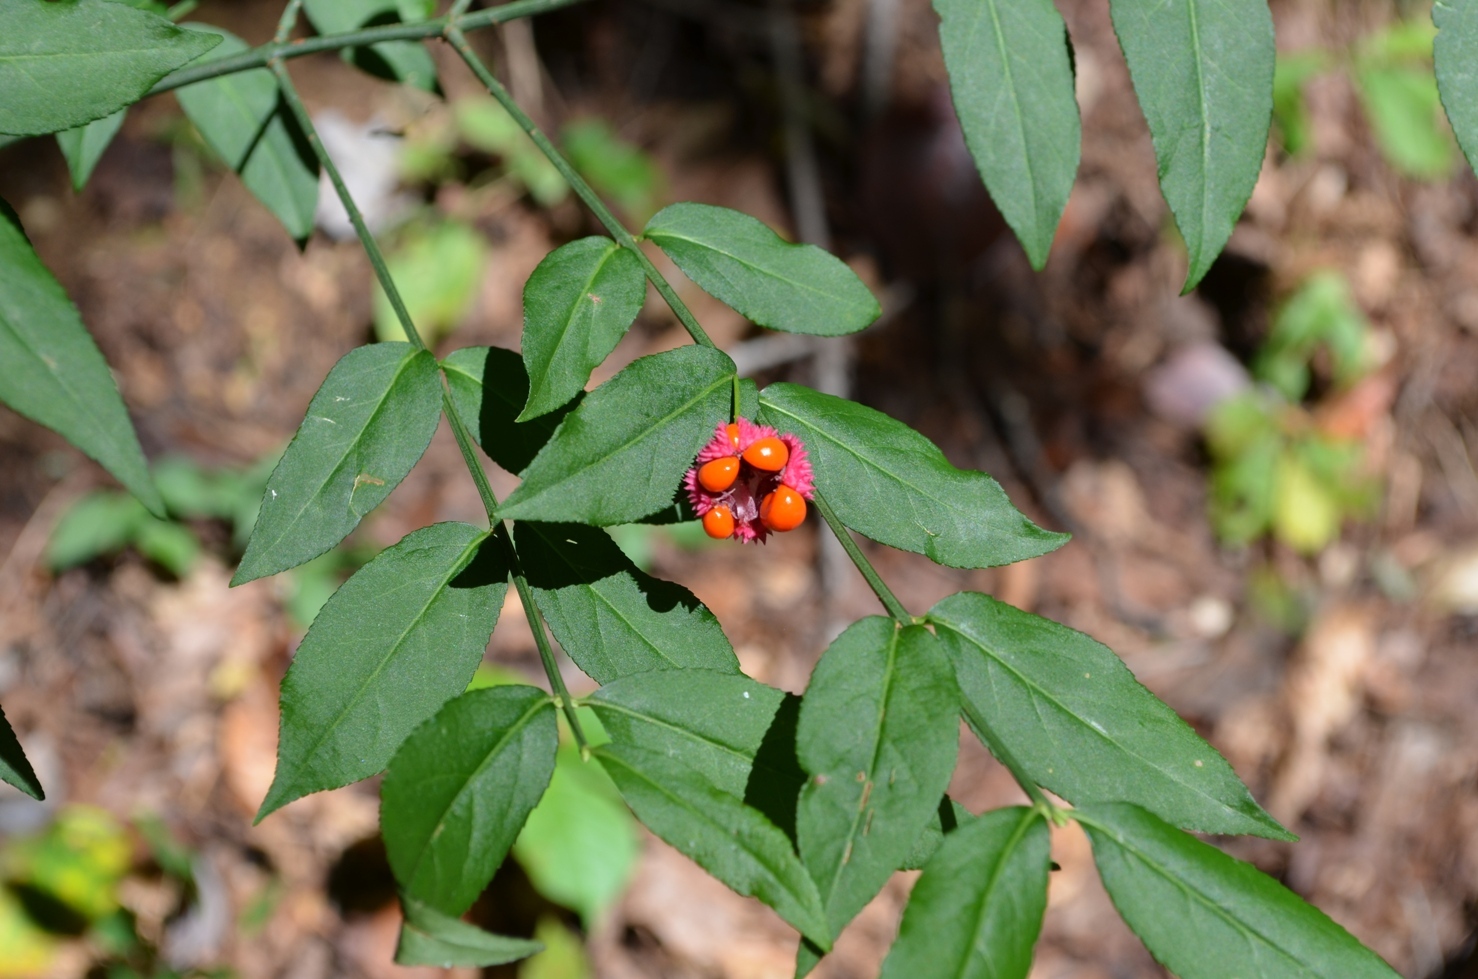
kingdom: Plantae
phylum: Tracheophyta
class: Magnoliopsida
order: Celastrales
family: Celastraceae
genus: Euonymus
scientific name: Euonymus americanus
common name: Bursting-heart
